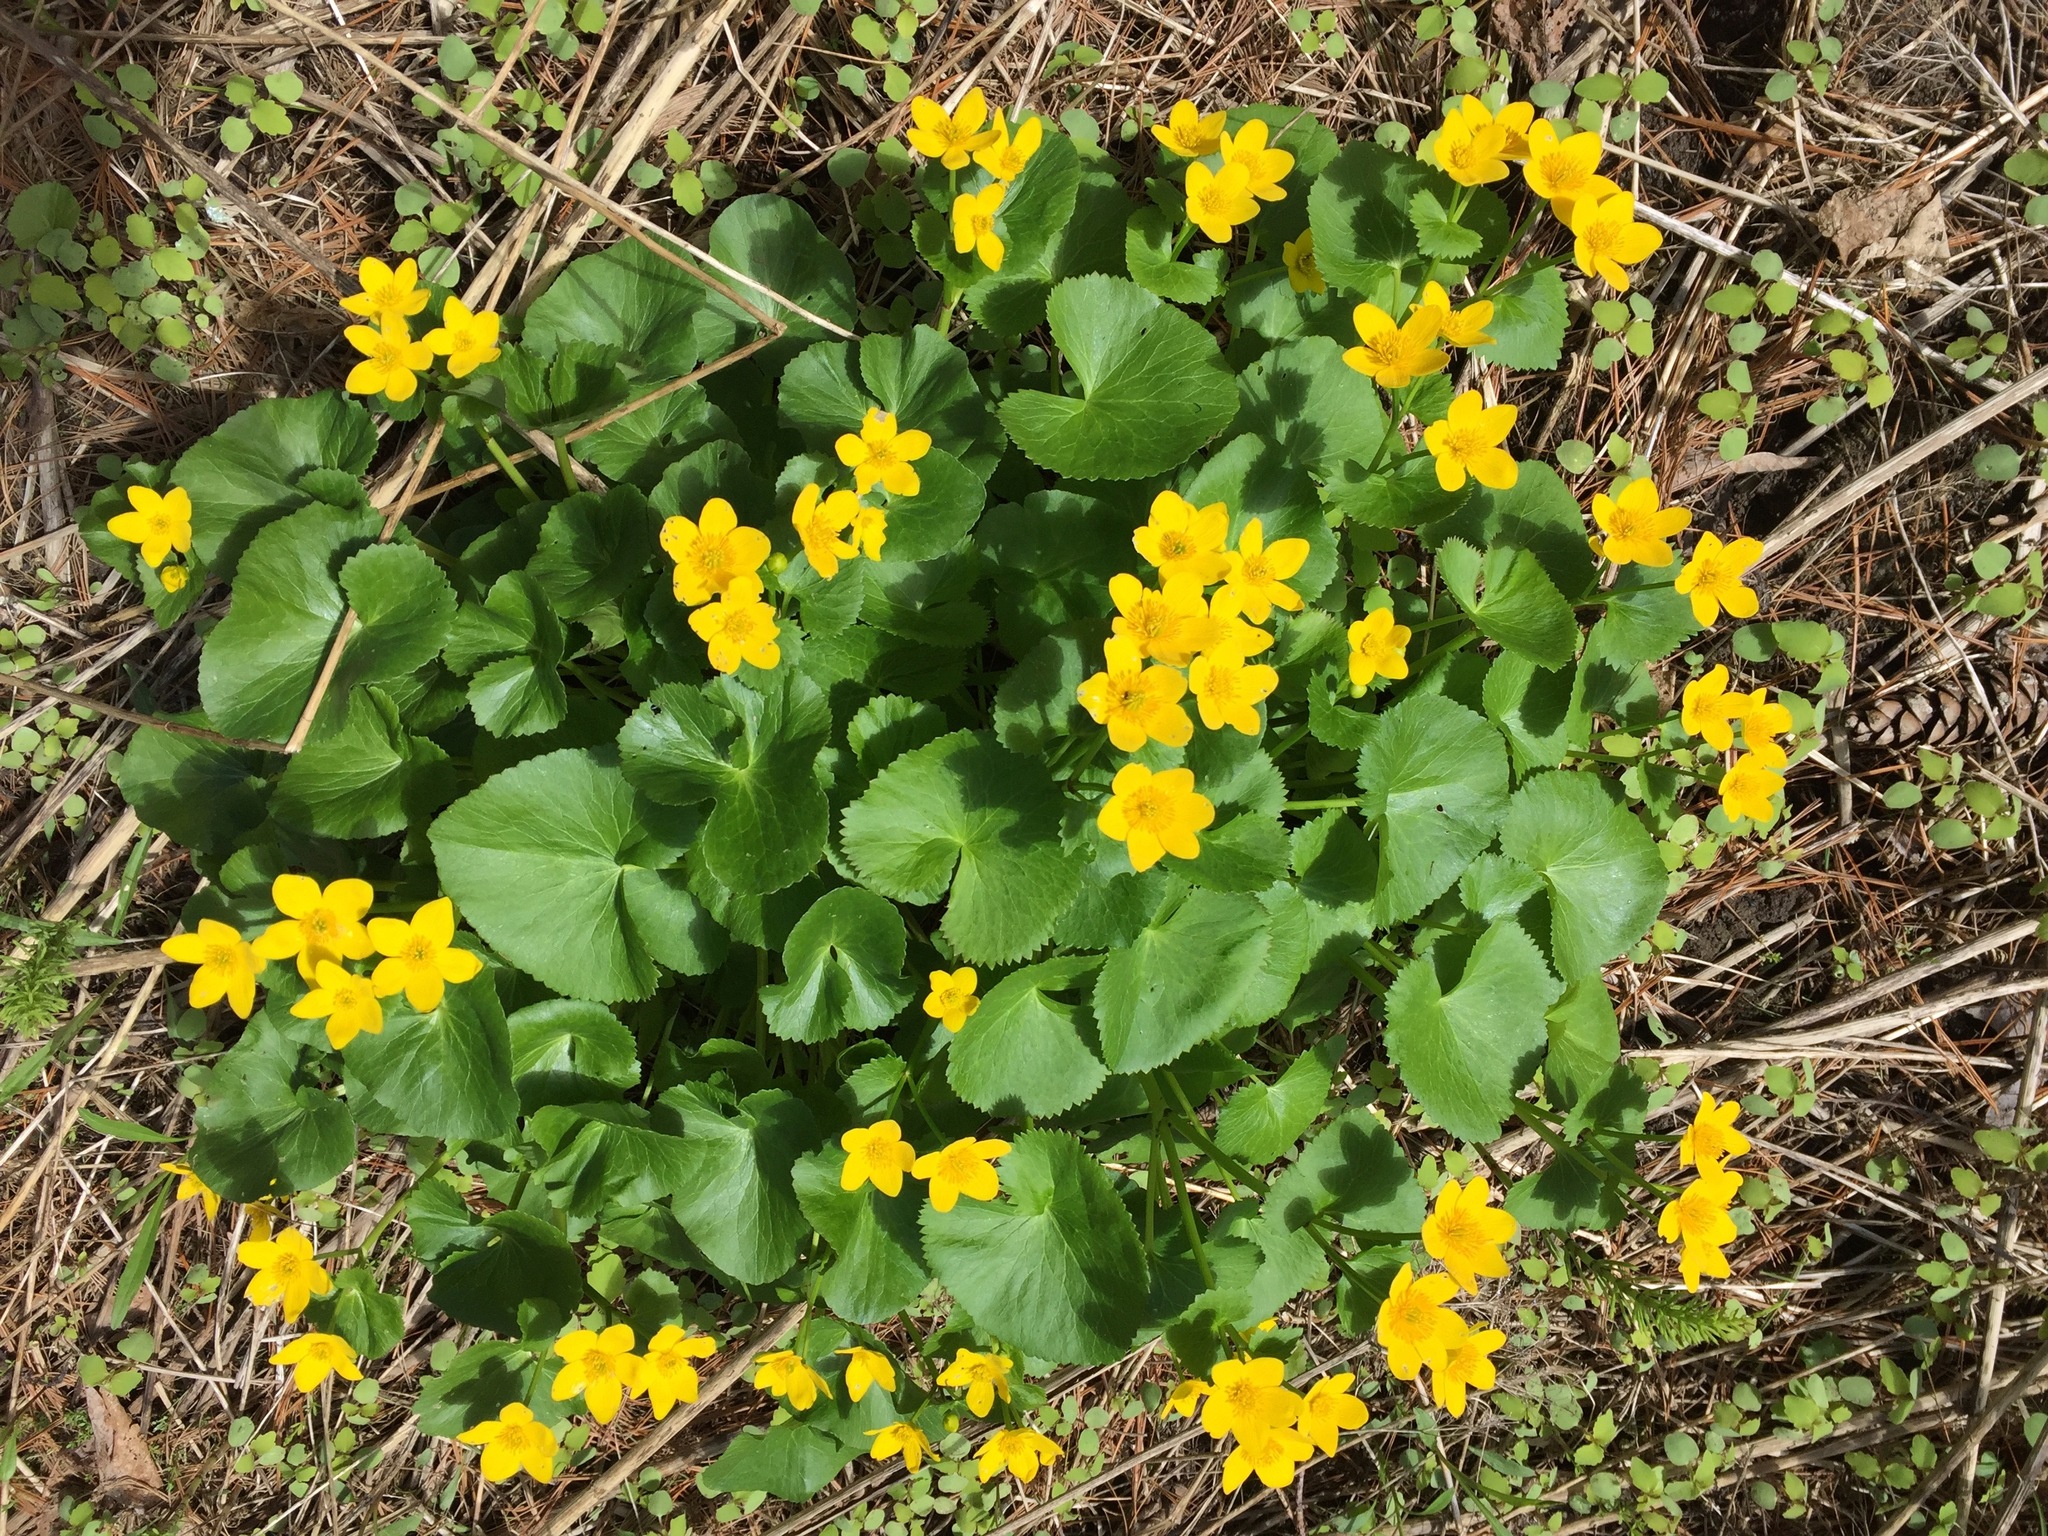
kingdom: Plantae
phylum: Tracheophyta
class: Magnoliopsida
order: Ranunculales
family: Ranunculaceae
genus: Caltha
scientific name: Caltha palustris
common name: Marsh marigold
